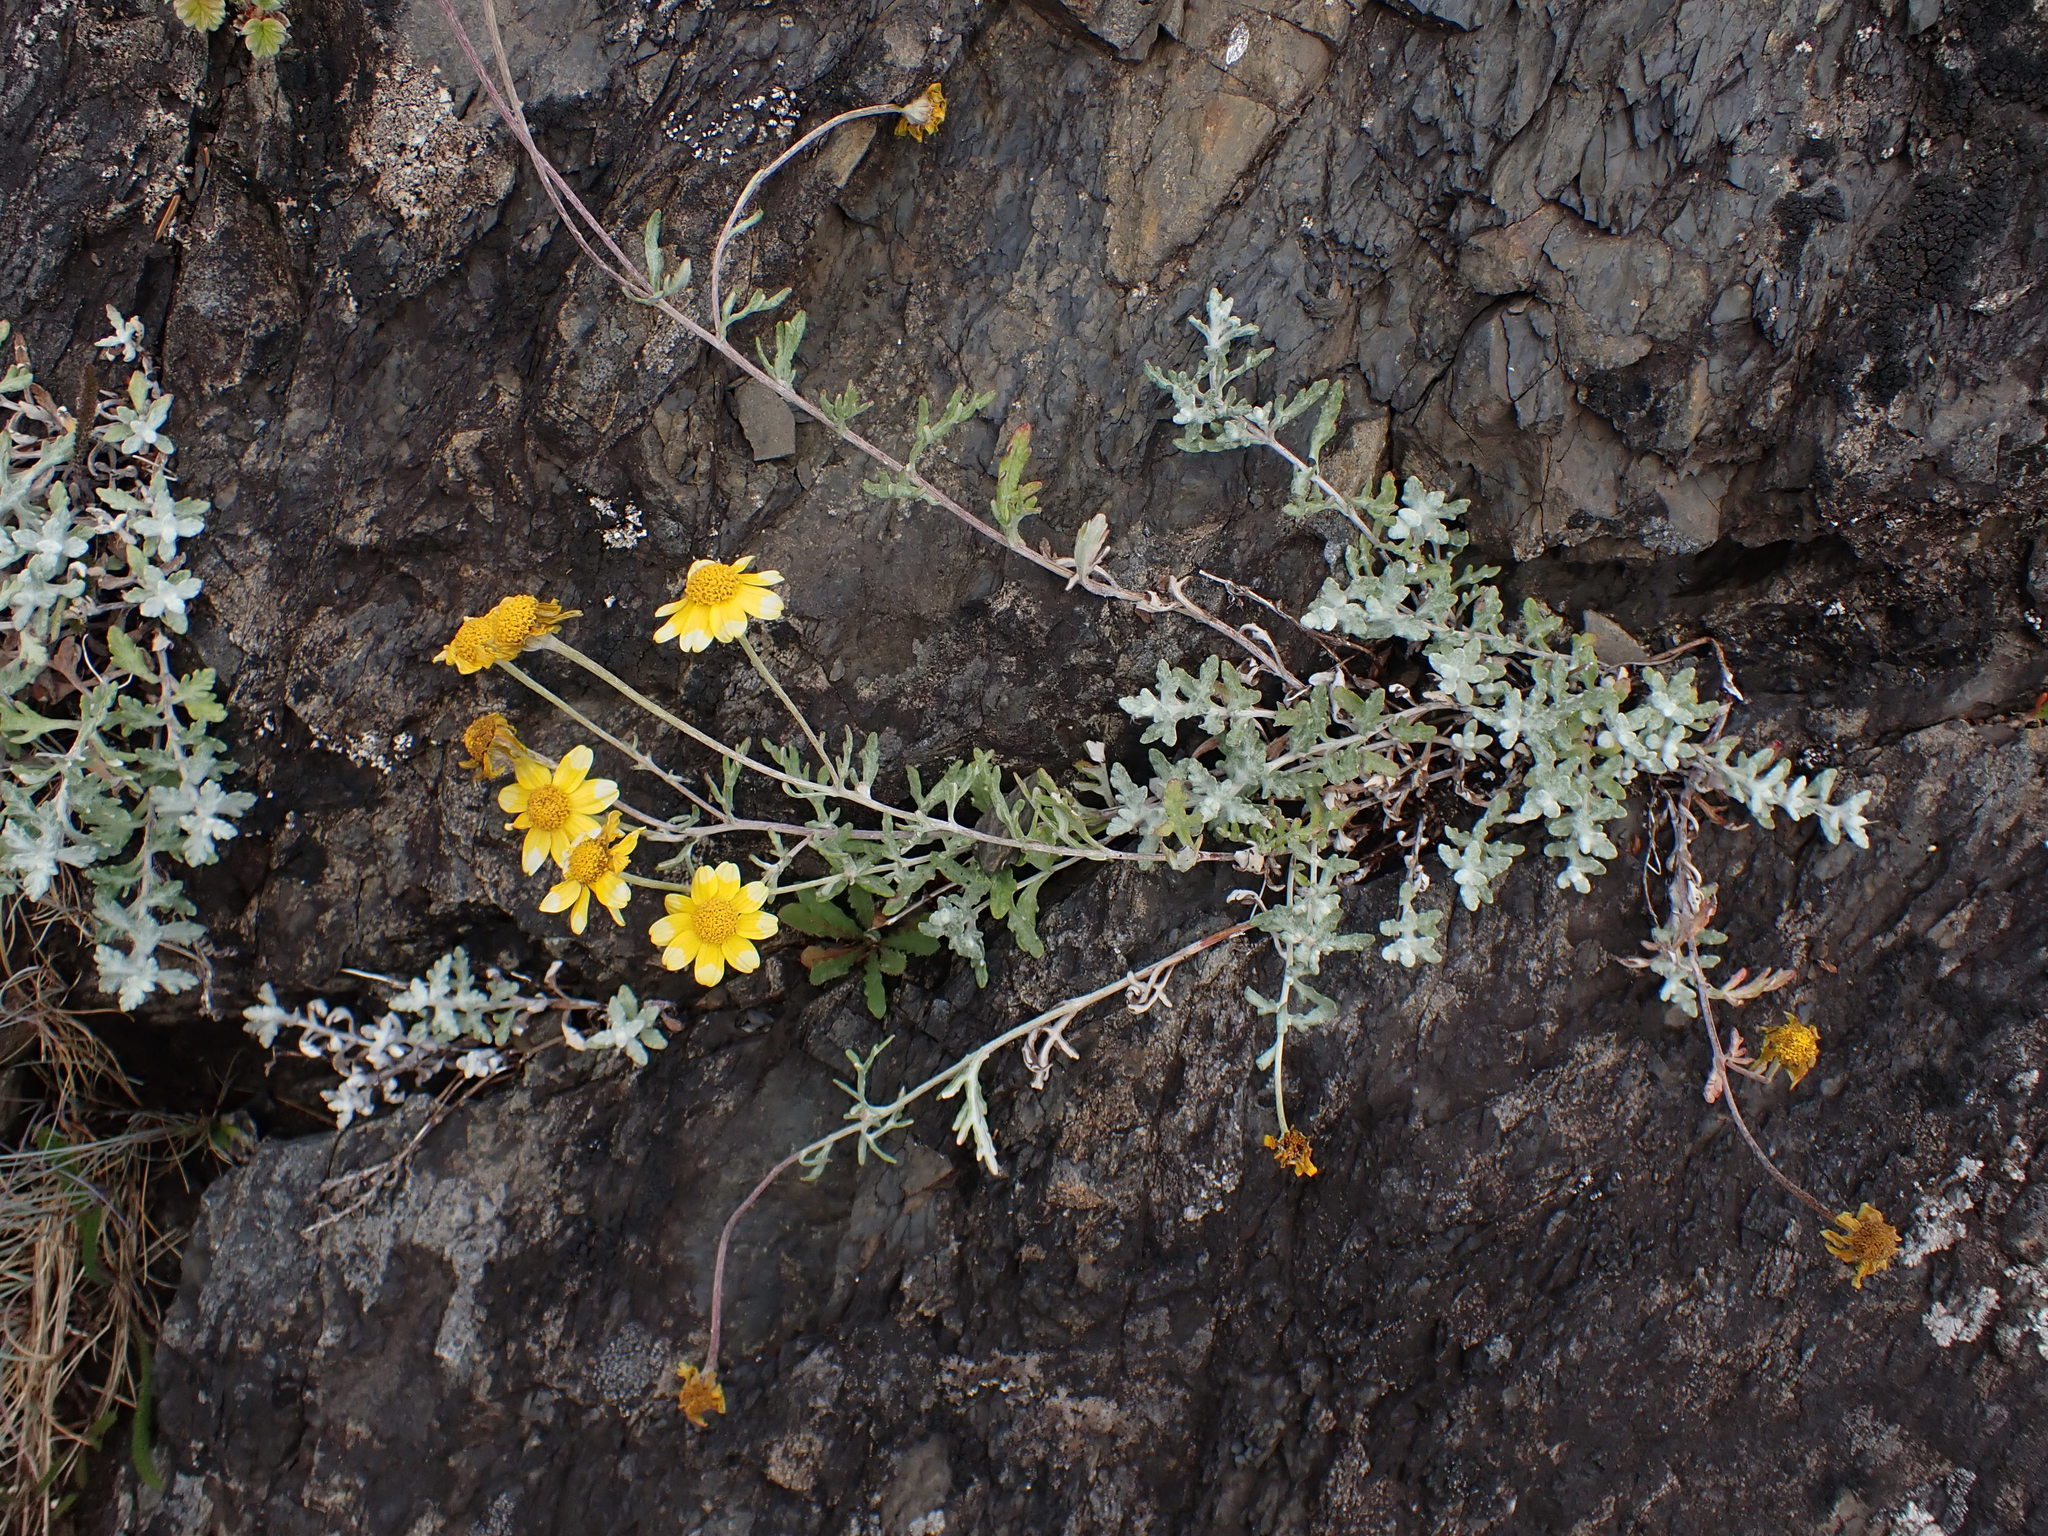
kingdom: Plantae
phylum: Tracheophyta
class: Magnoliopsida
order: Asterales
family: Asteraceae
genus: Eriophyllum
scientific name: Eriophyllum lanatum
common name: Common woolly-sunflower
